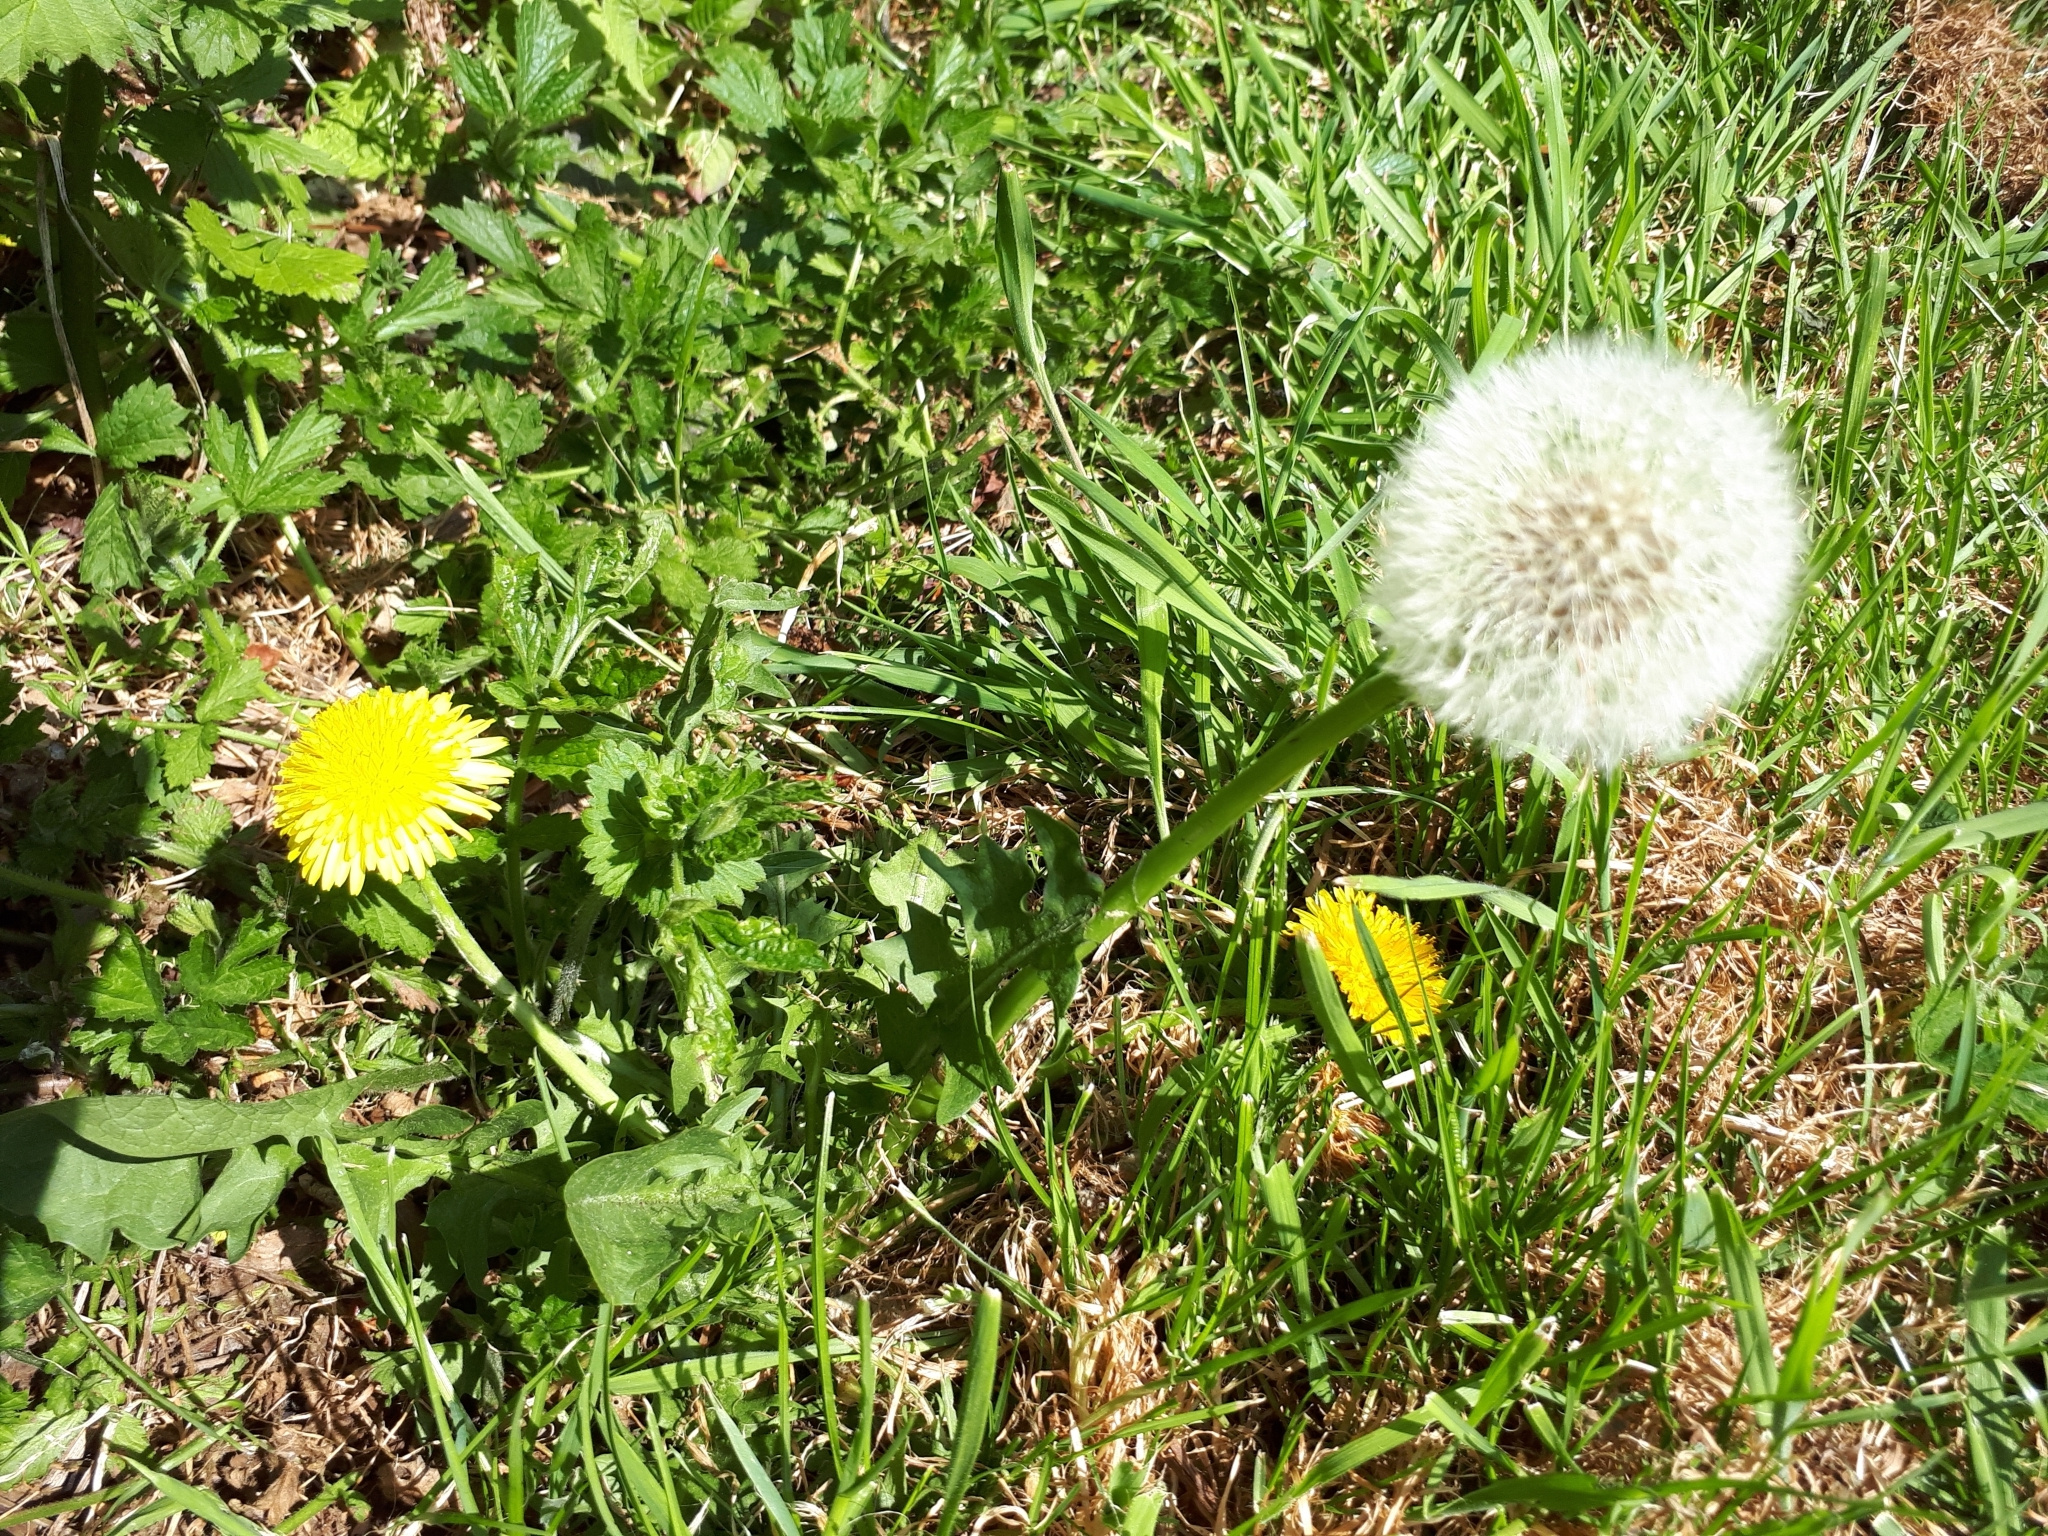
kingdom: Plantae
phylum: Tracheophyta
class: Magnoliopsida
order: Asterales
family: Asteraceae
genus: Taraxacum
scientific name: Taraxacum officinale
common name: Common dandelion
